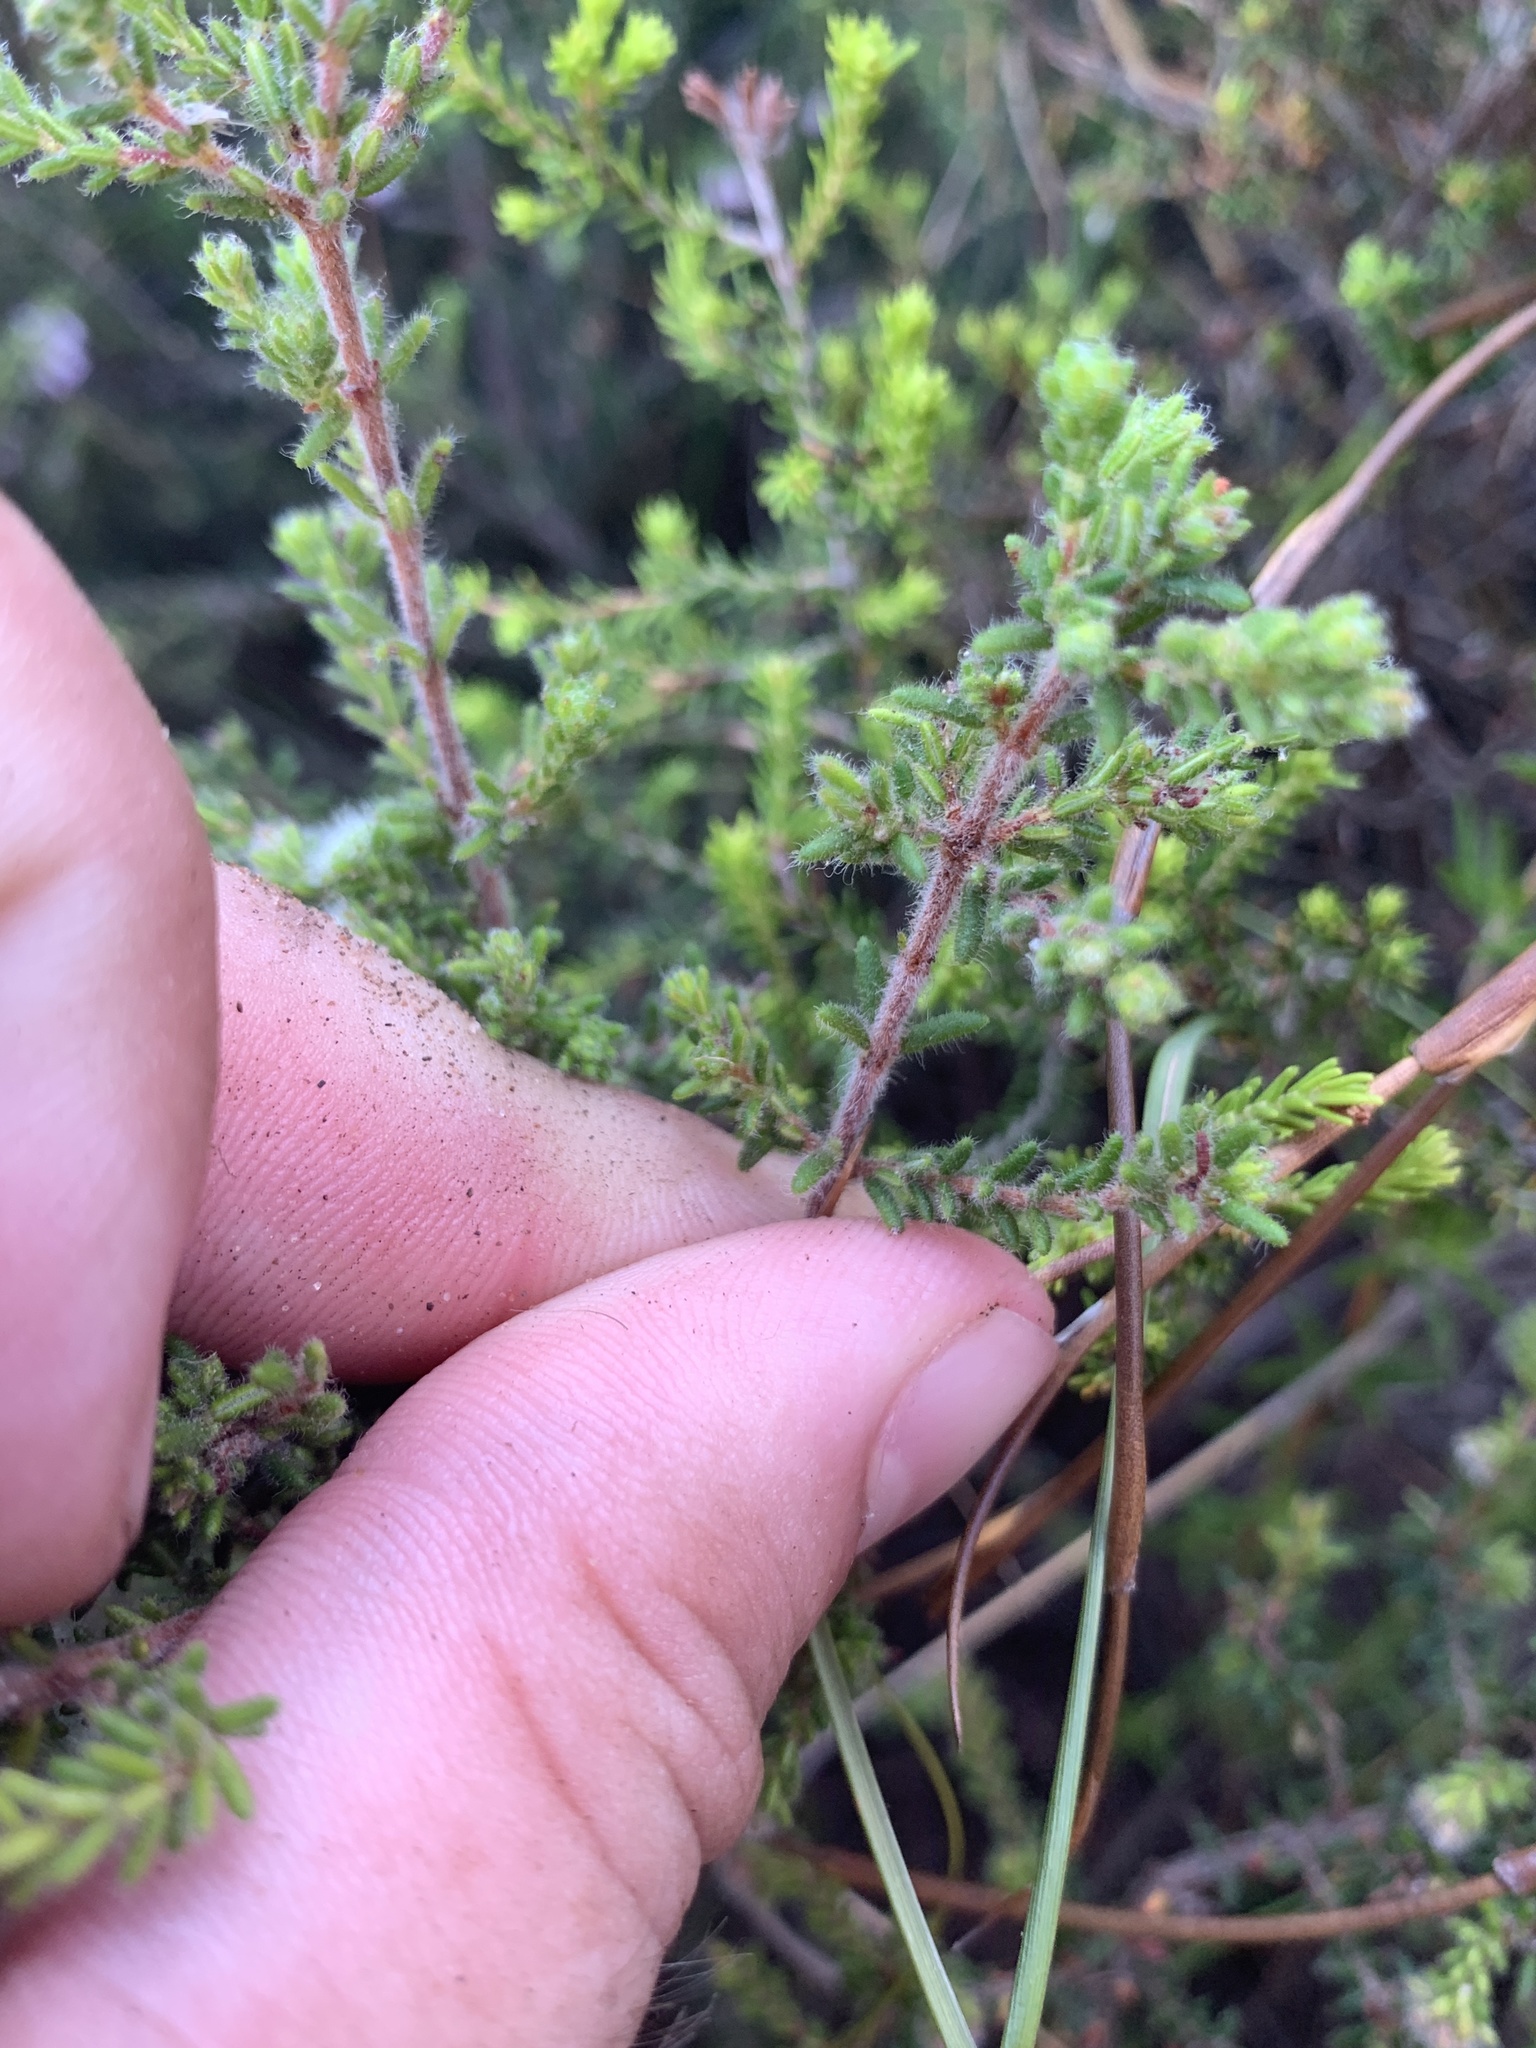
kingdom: Plantae
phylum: Tracheophyta
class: Magnoliopsida
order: Ericales
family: Ericaceae
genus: Erica
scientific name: Erica nudiflora
